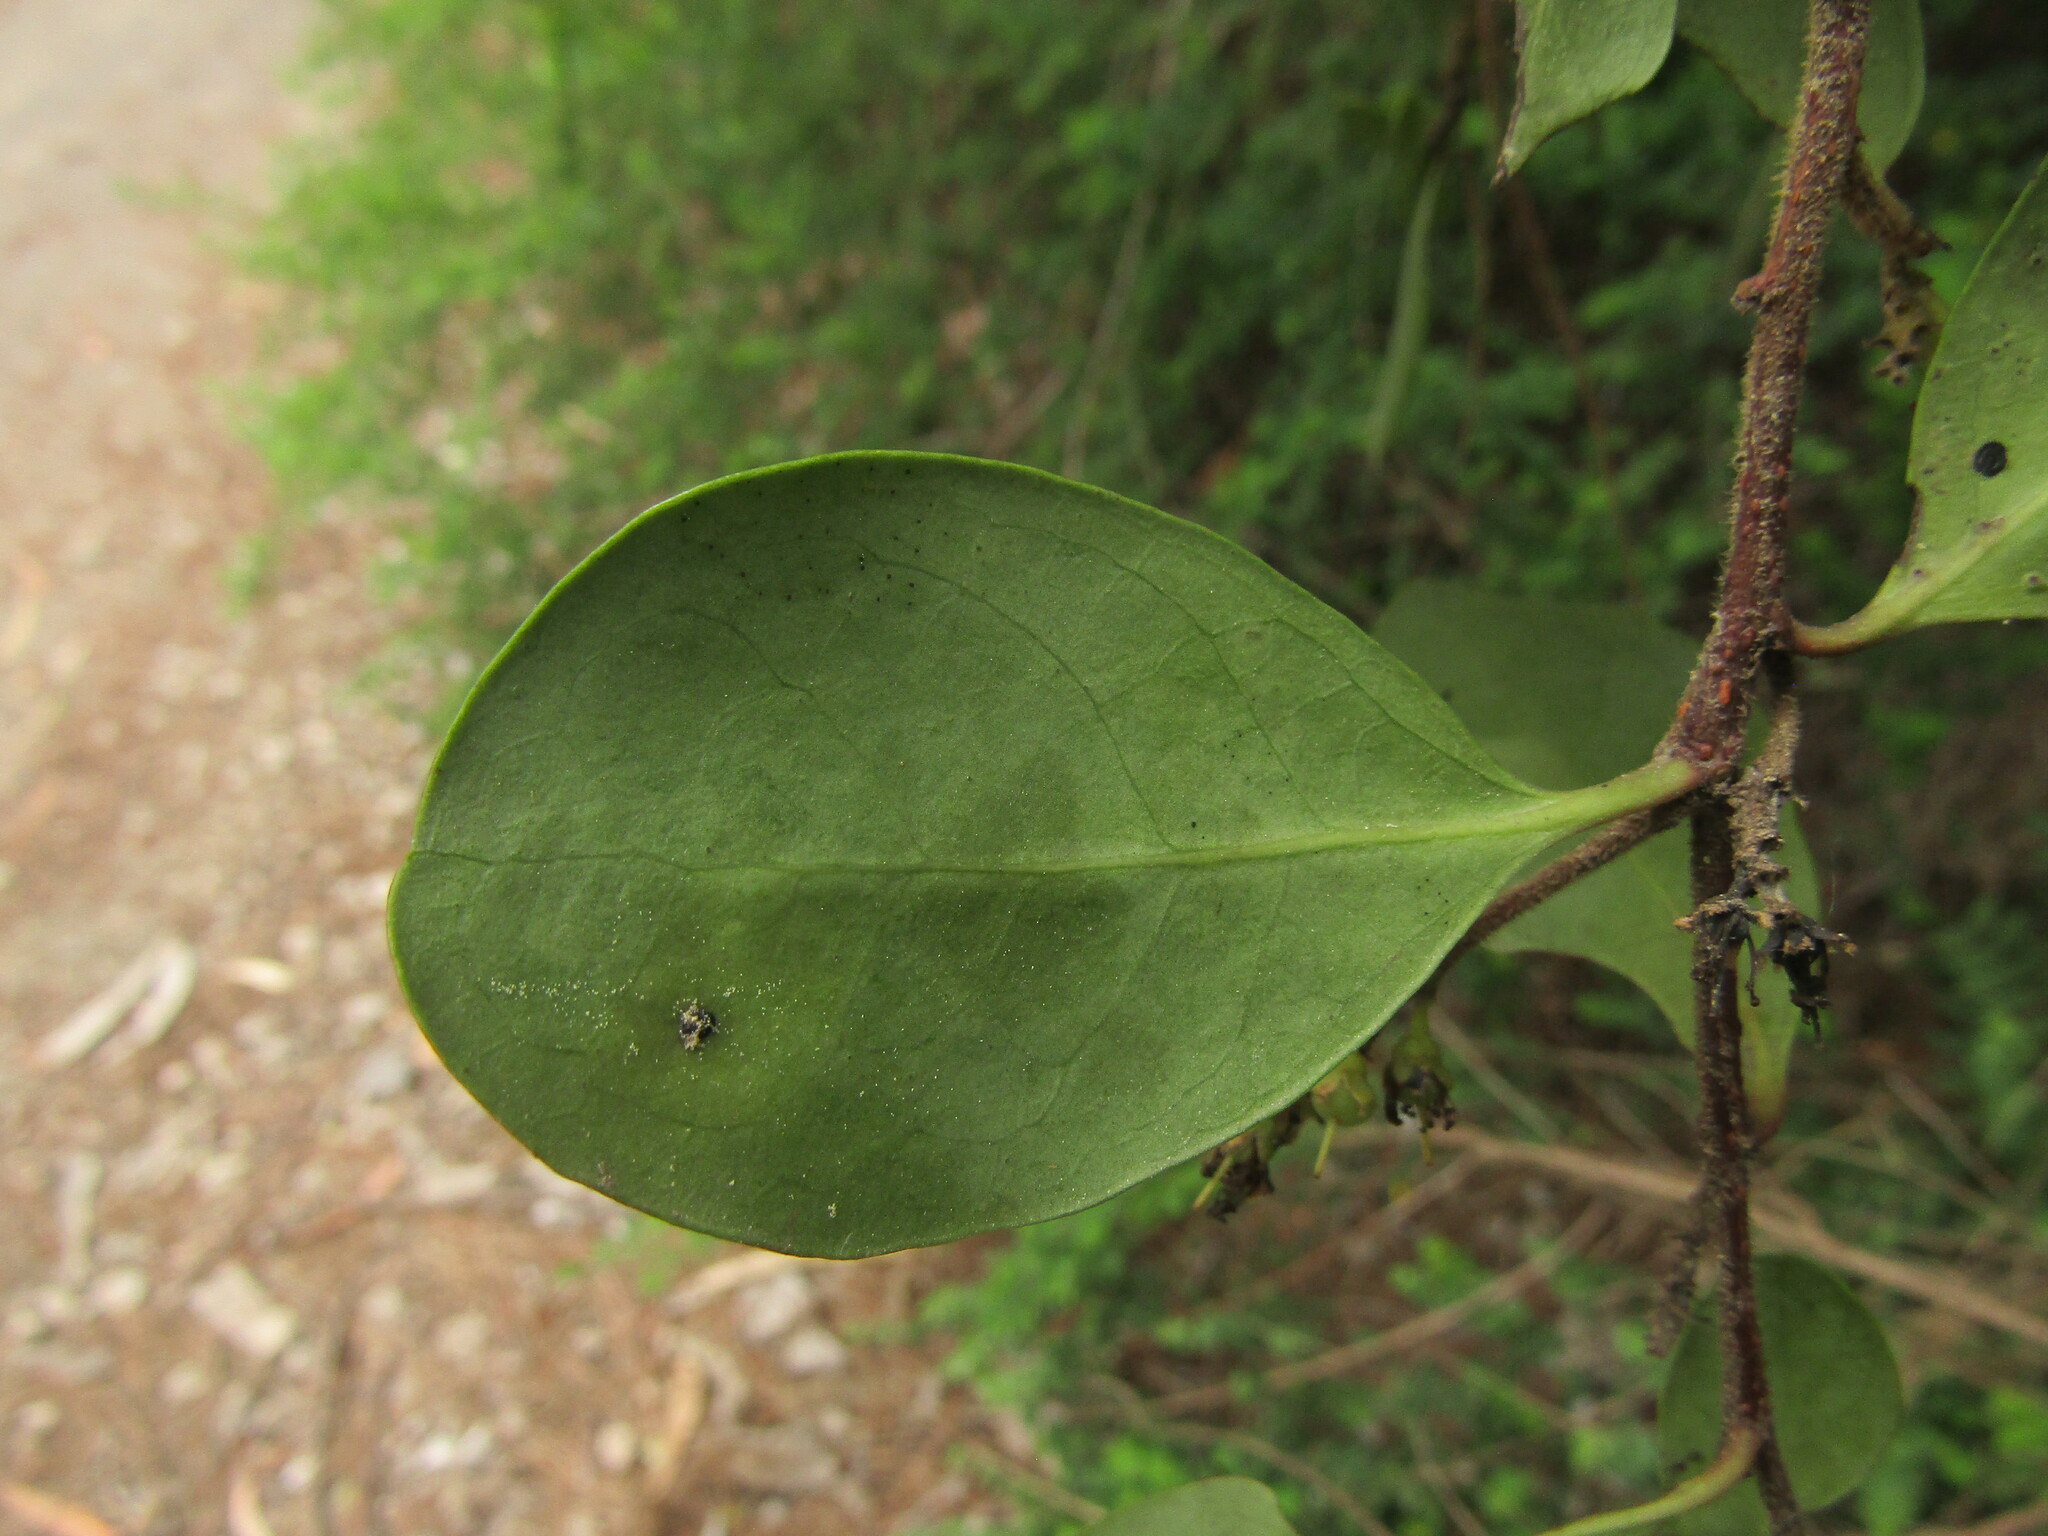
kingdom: Plantae
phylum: Tracheophyta
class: Magnoliopsida
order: Malpighiales
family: Salicaceae
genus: Azara
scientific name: Azara integrifolia
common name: Goldspire
